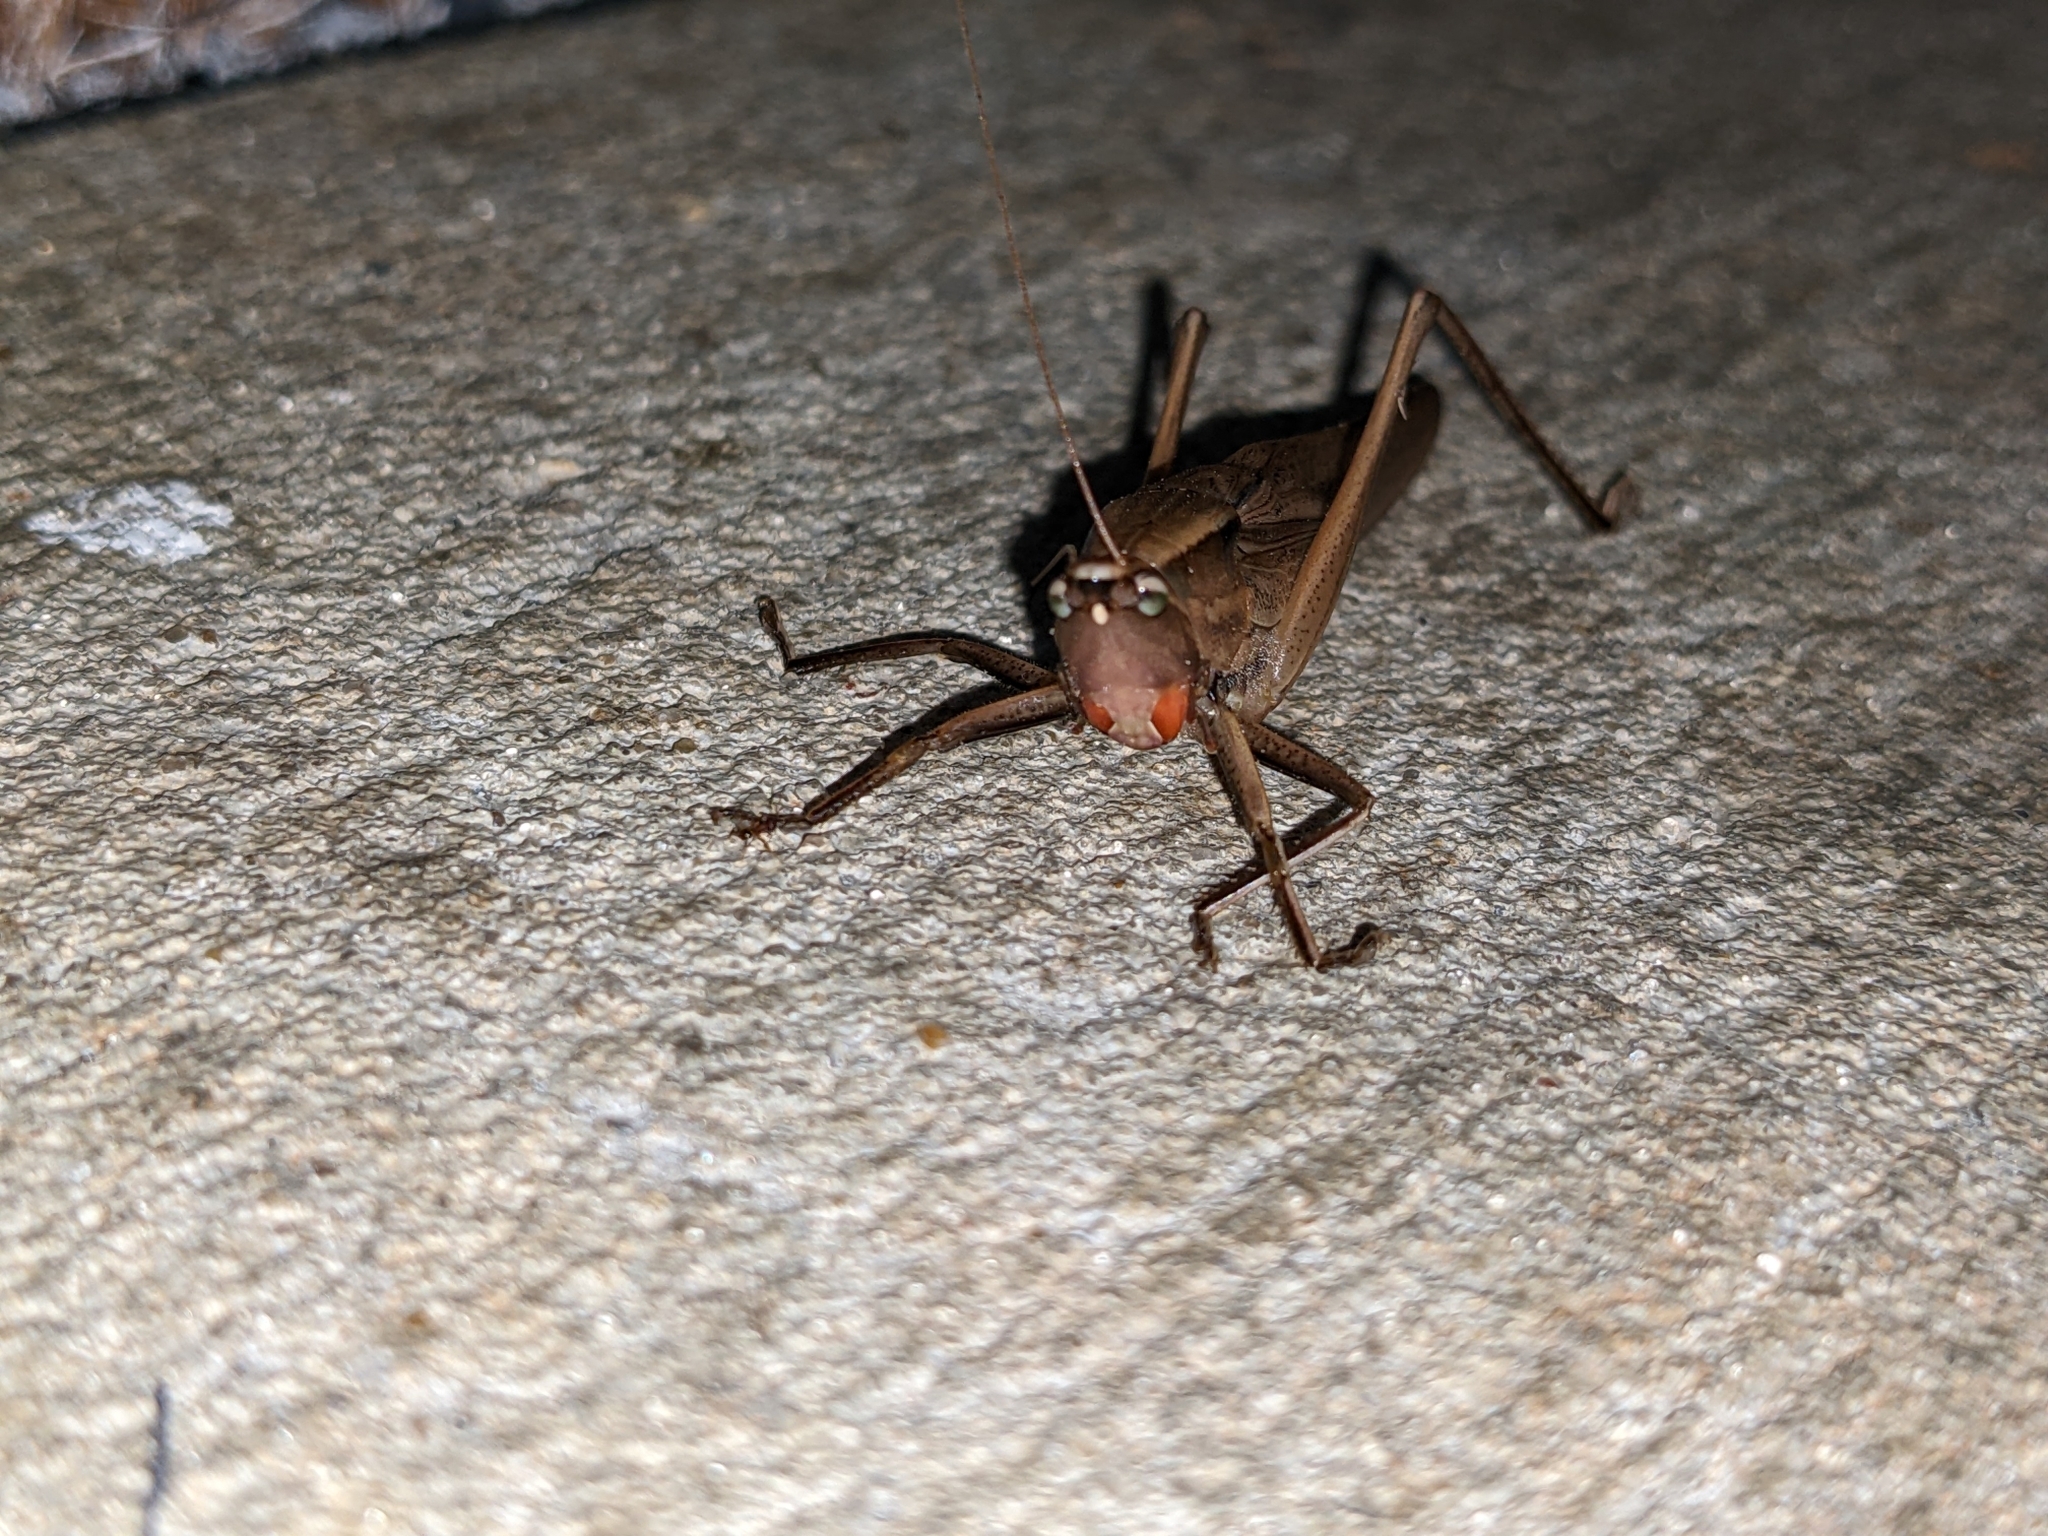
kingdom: Animalia
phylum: Arthropoda
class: Insecta
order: Orthoptera
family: Tettigoniidae
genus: Neoconocephalus
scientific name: Neoconocephalus triops
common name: Broad-tipped conehead
